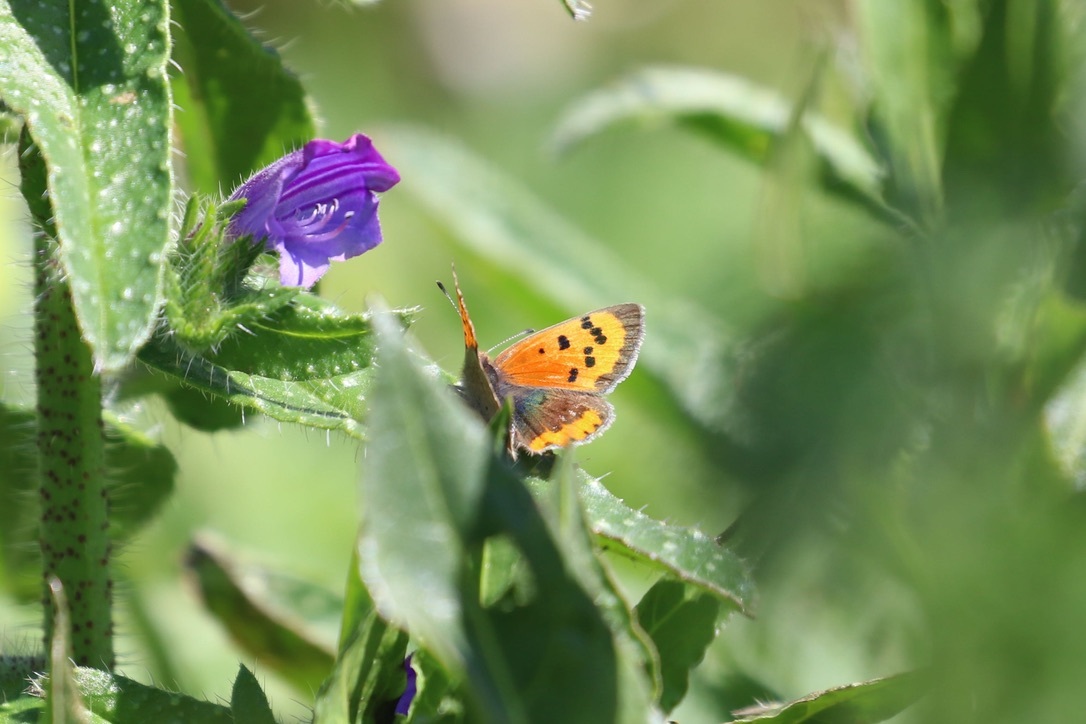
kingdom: Animalia
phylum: Arthropoda
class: Insecta
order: Lepidoptera
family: Lycaenidae
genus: Lycaena
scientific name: Lycaena phlaeas
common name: Small copper
